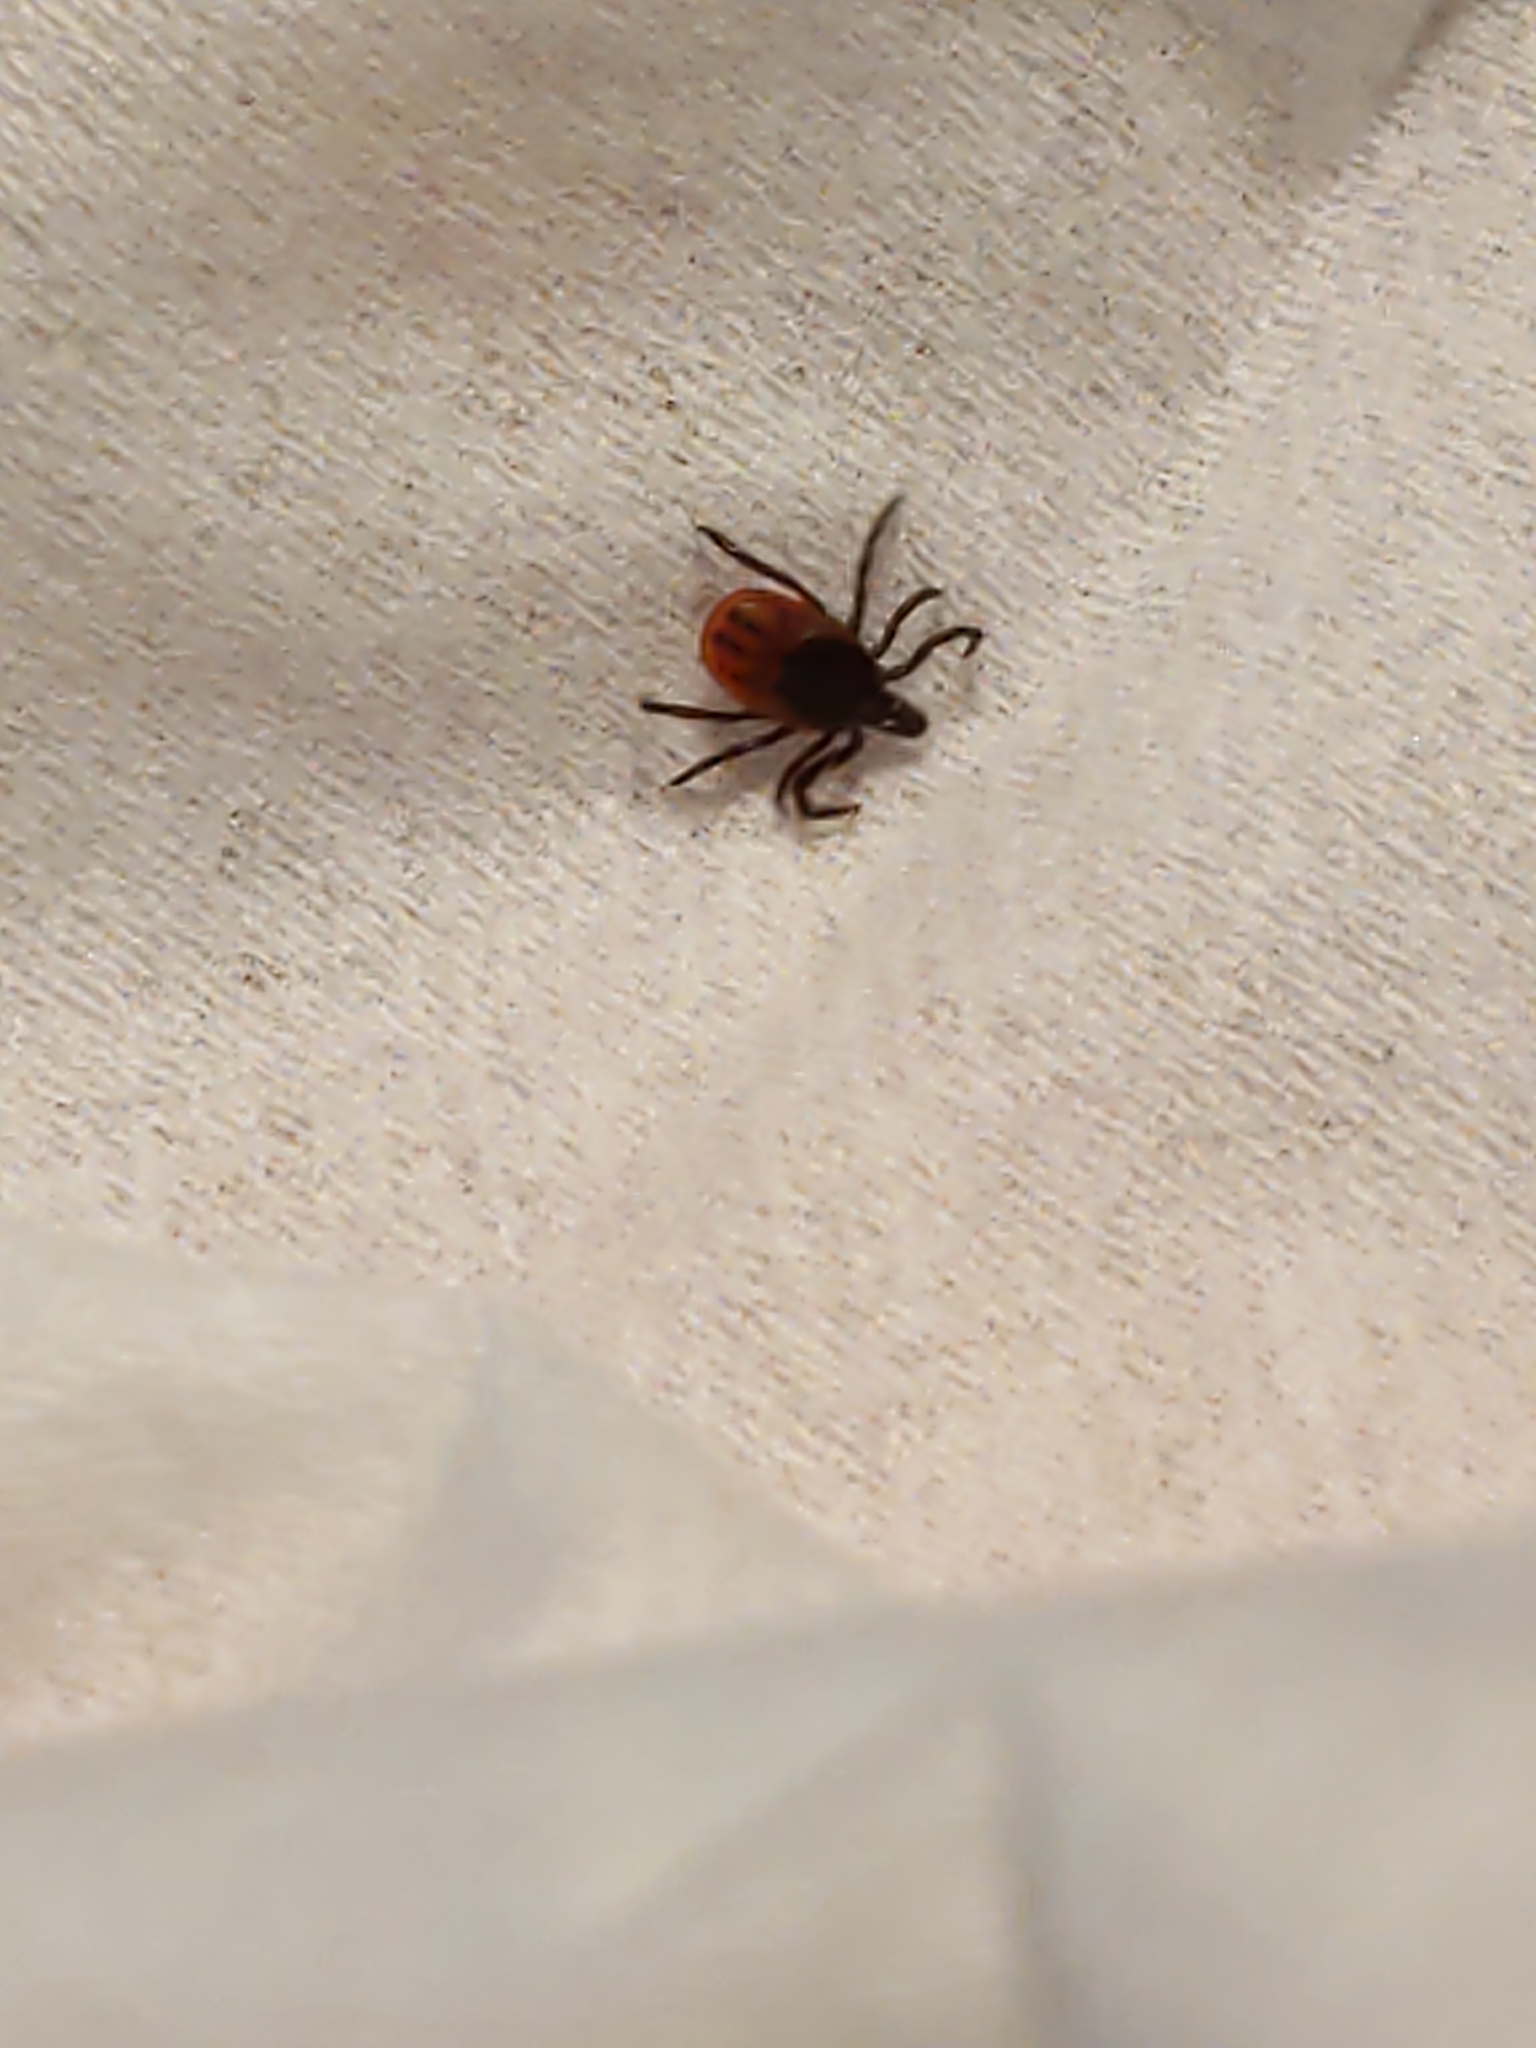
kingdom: Animalia
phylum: Arthropoda
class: Arachnida
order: Ixodida
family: Ixodidae
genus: Ixodes
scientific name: Ixodes scapularis
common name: Black legged tick
